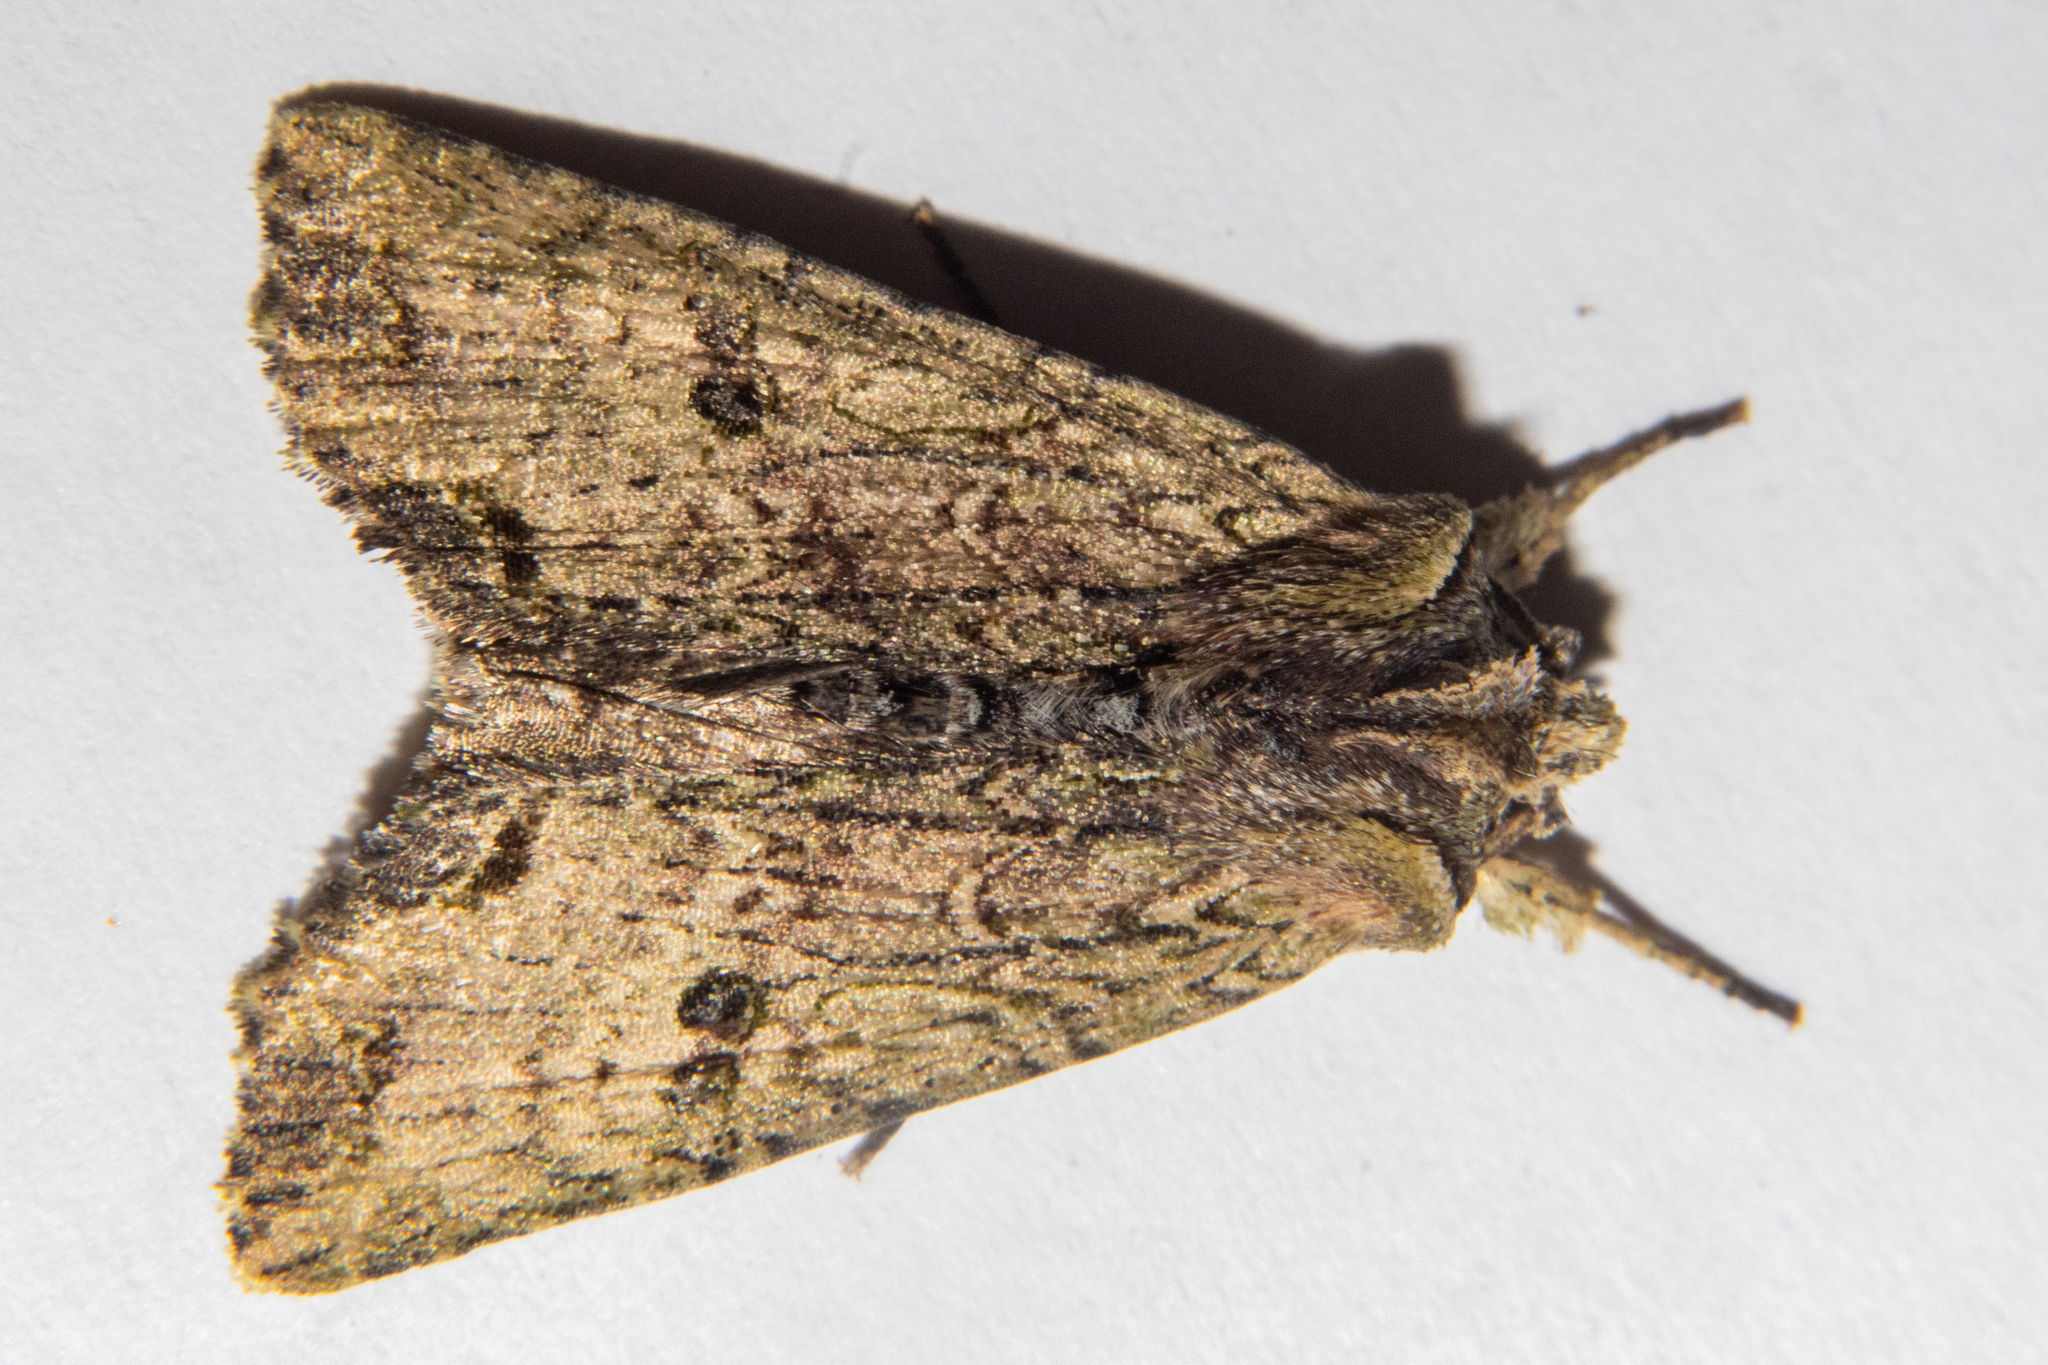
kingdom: Animalia
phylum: Arthropoda
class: Insecta
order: Lepidoptera
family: Noctuidae
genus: Meterana
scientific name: Meterana coeleno
